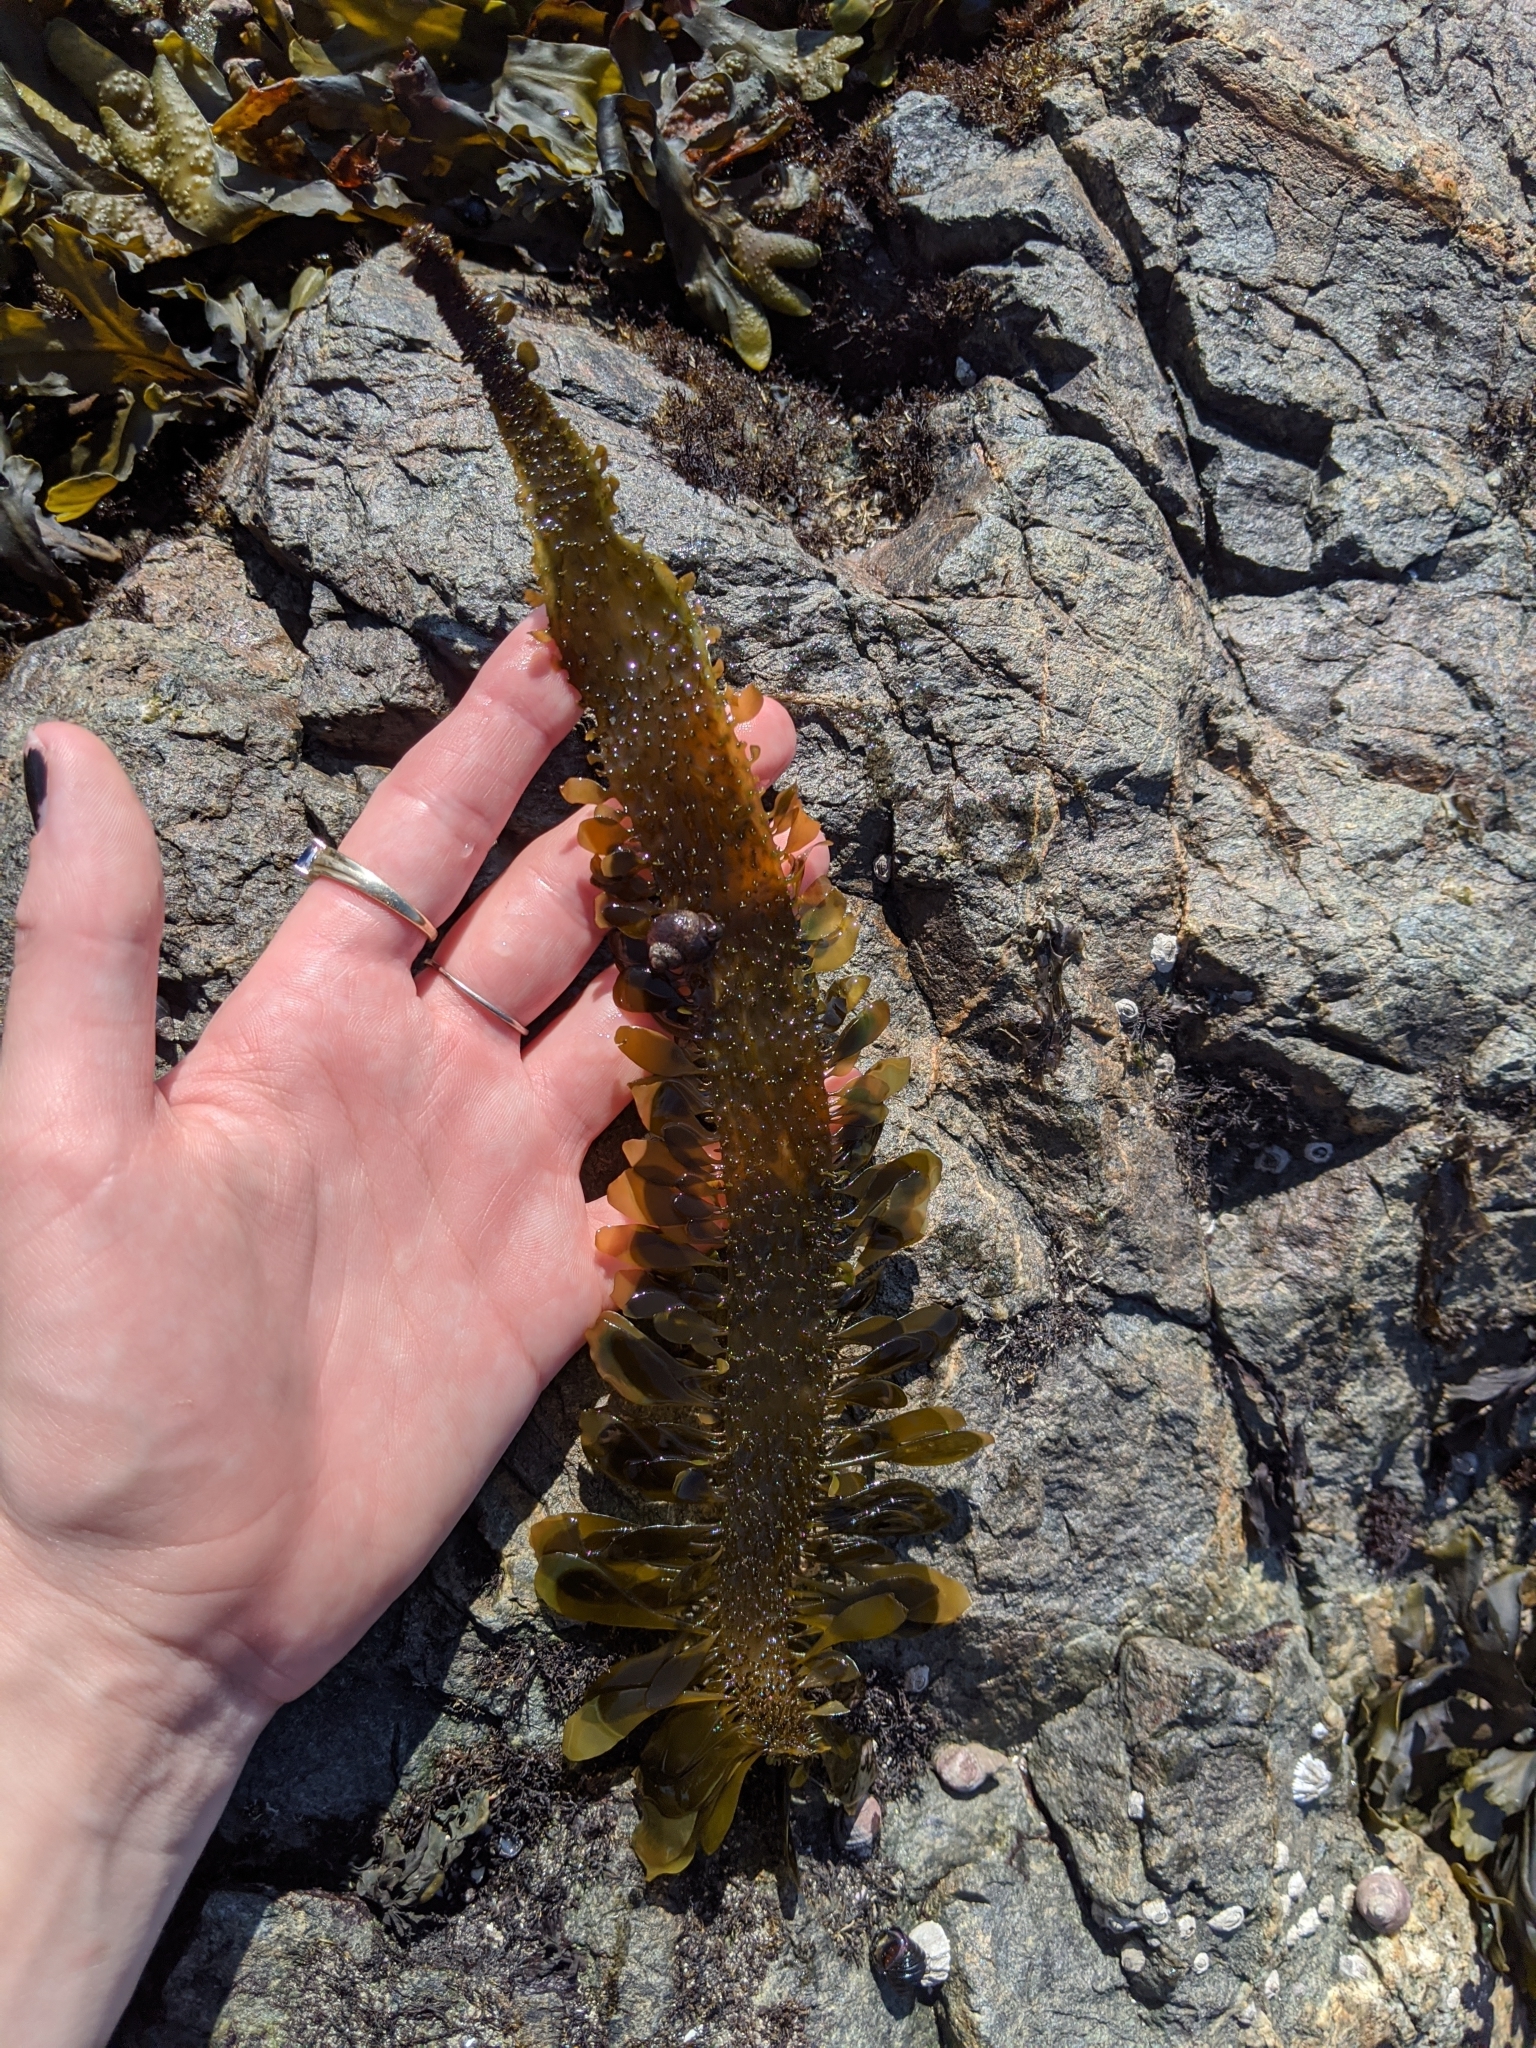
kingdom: Chromista
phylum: Ochrophyta
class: Phaeophyceae
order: Laminariales
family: Lessoniaceae
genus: Egregia
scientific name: Egregia menziesii
